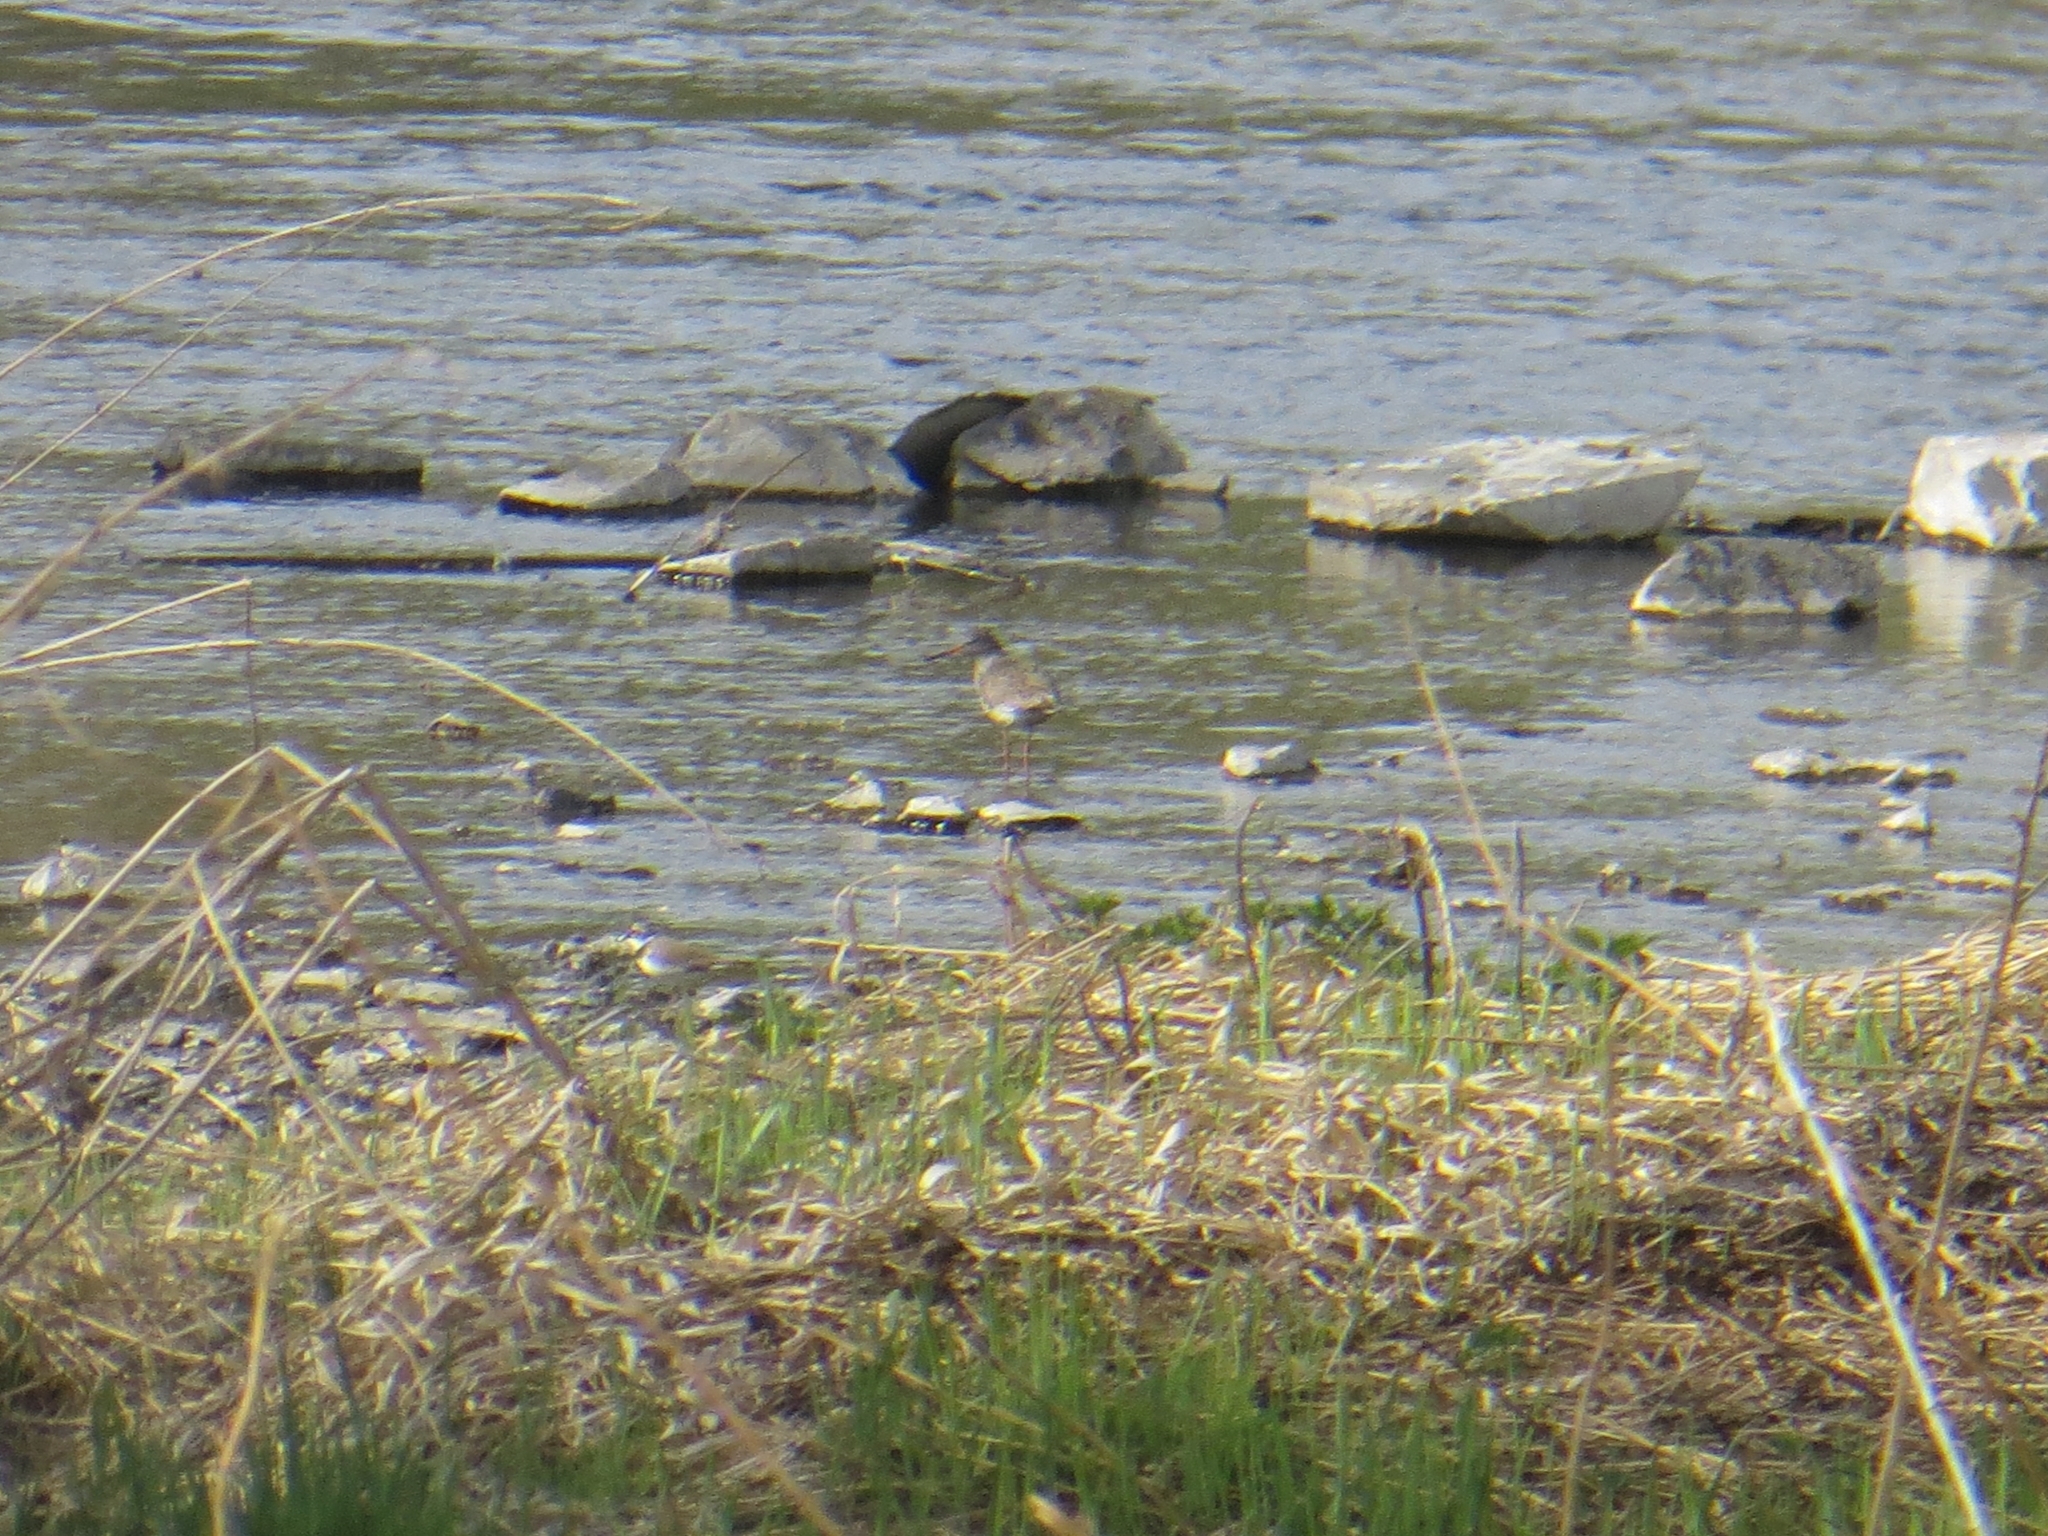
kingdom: Animalia
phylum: Chordata
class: Aves
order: Charadriiformes
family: Scolopacidae
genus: Tringa
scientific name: Tringa totanus
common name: Common redshank
